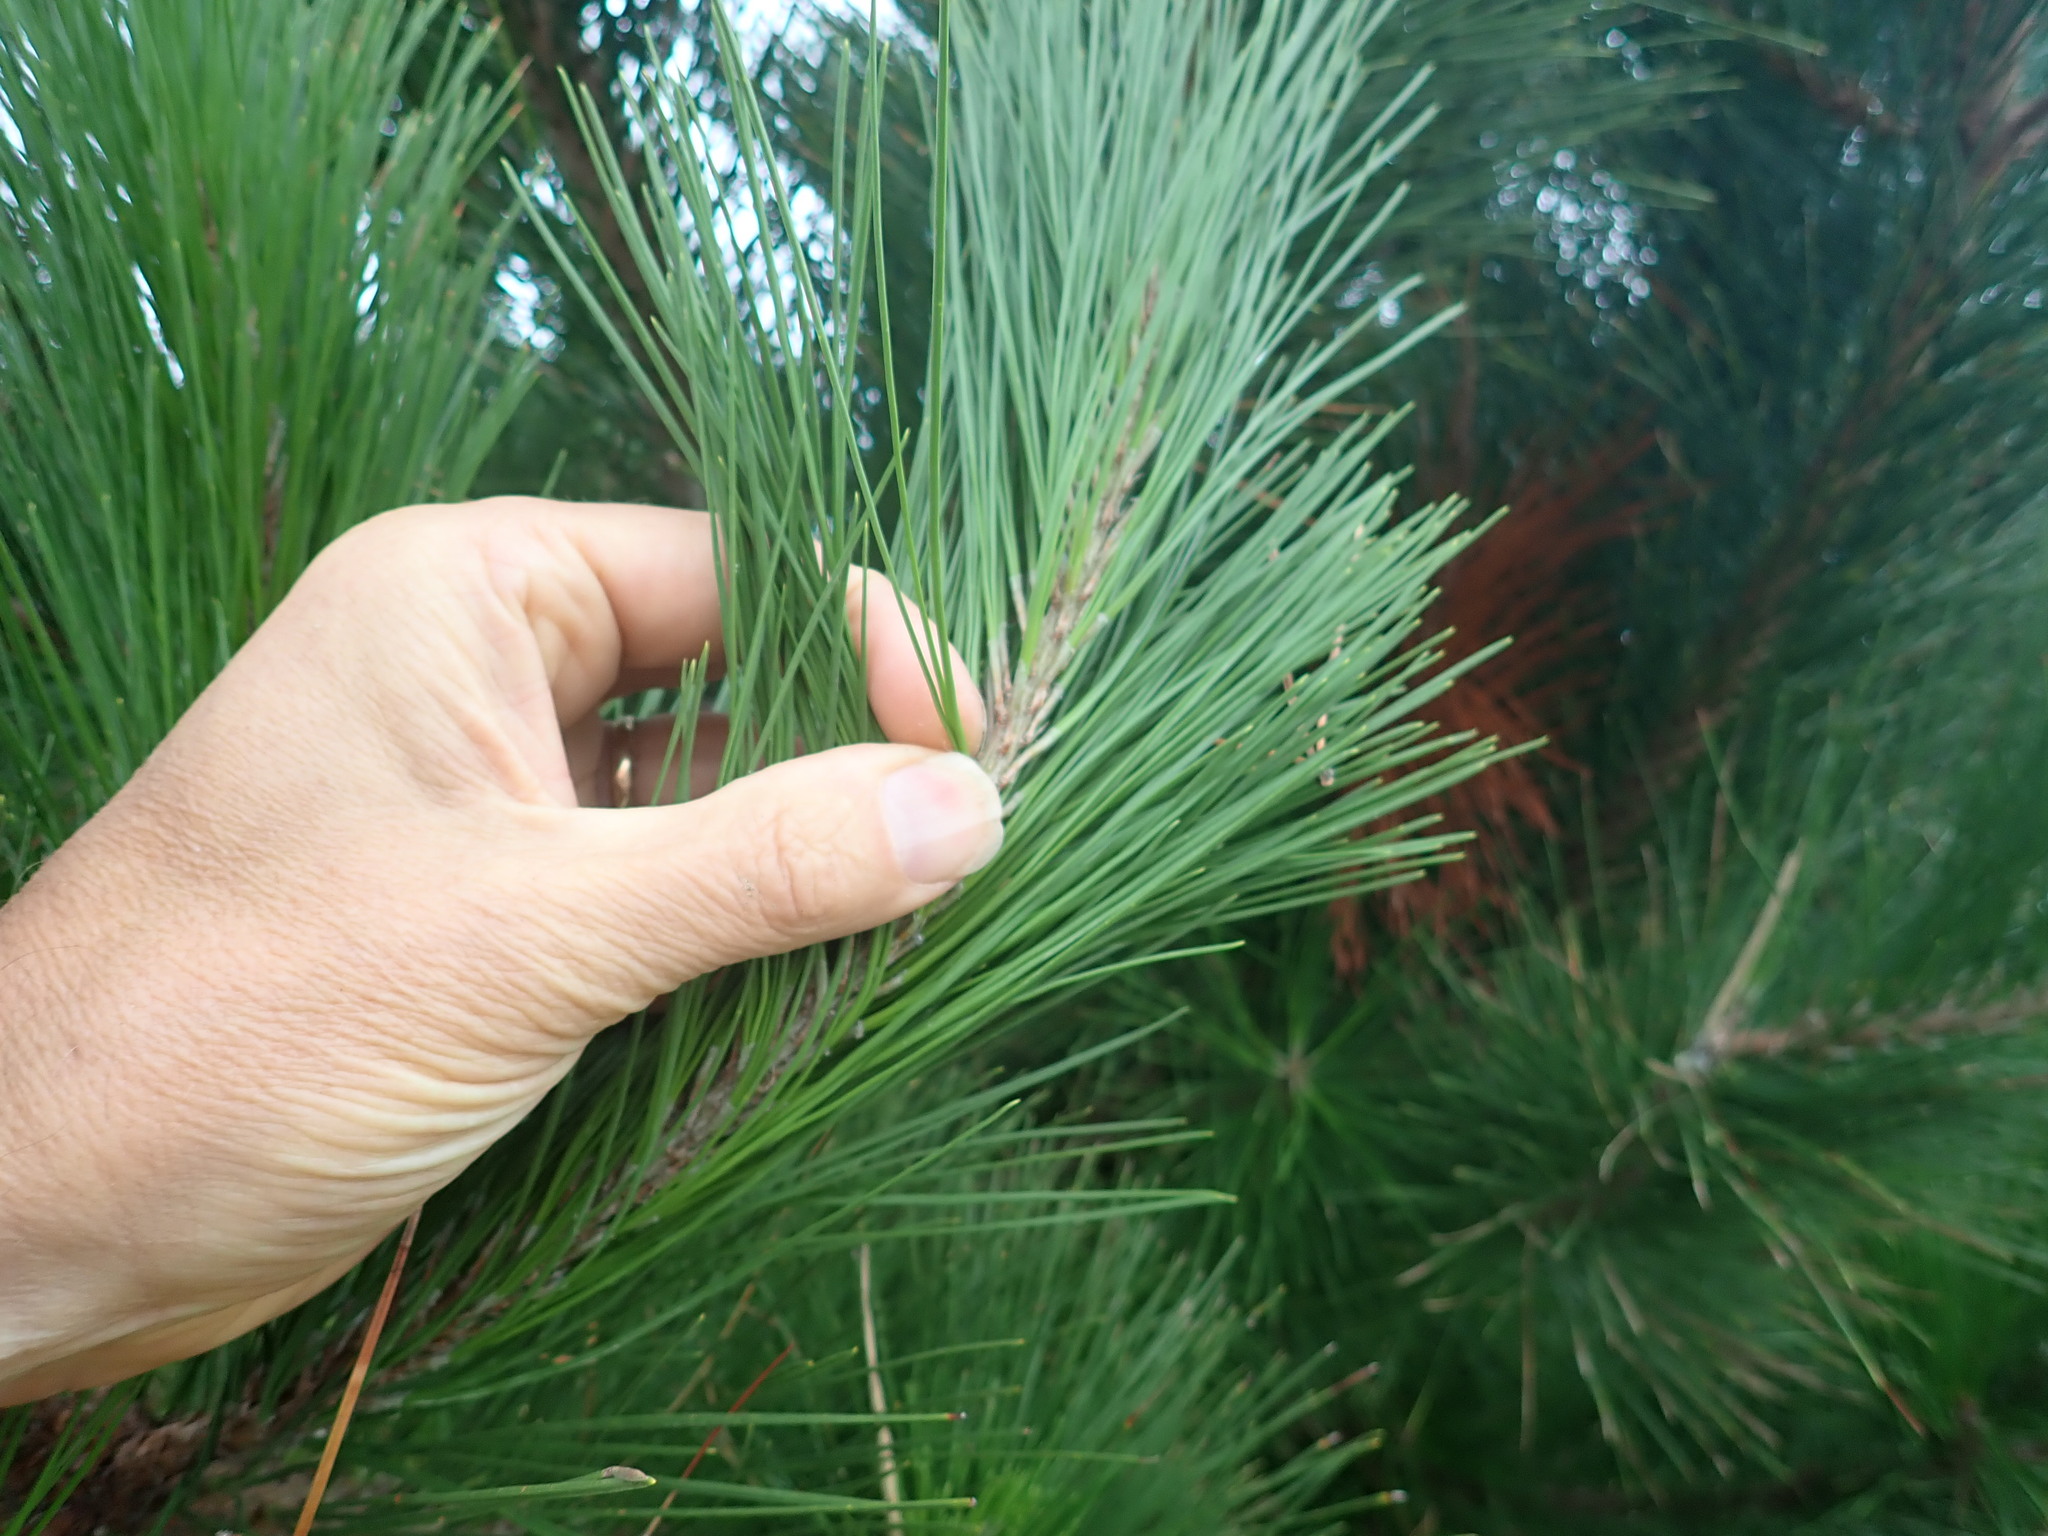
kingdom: Plantae
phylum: Tracheophyta
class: Pinopsida
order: Pinales
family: Pinaceae
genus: Pinus
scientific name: Pinus radiata
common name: Monterey pine
